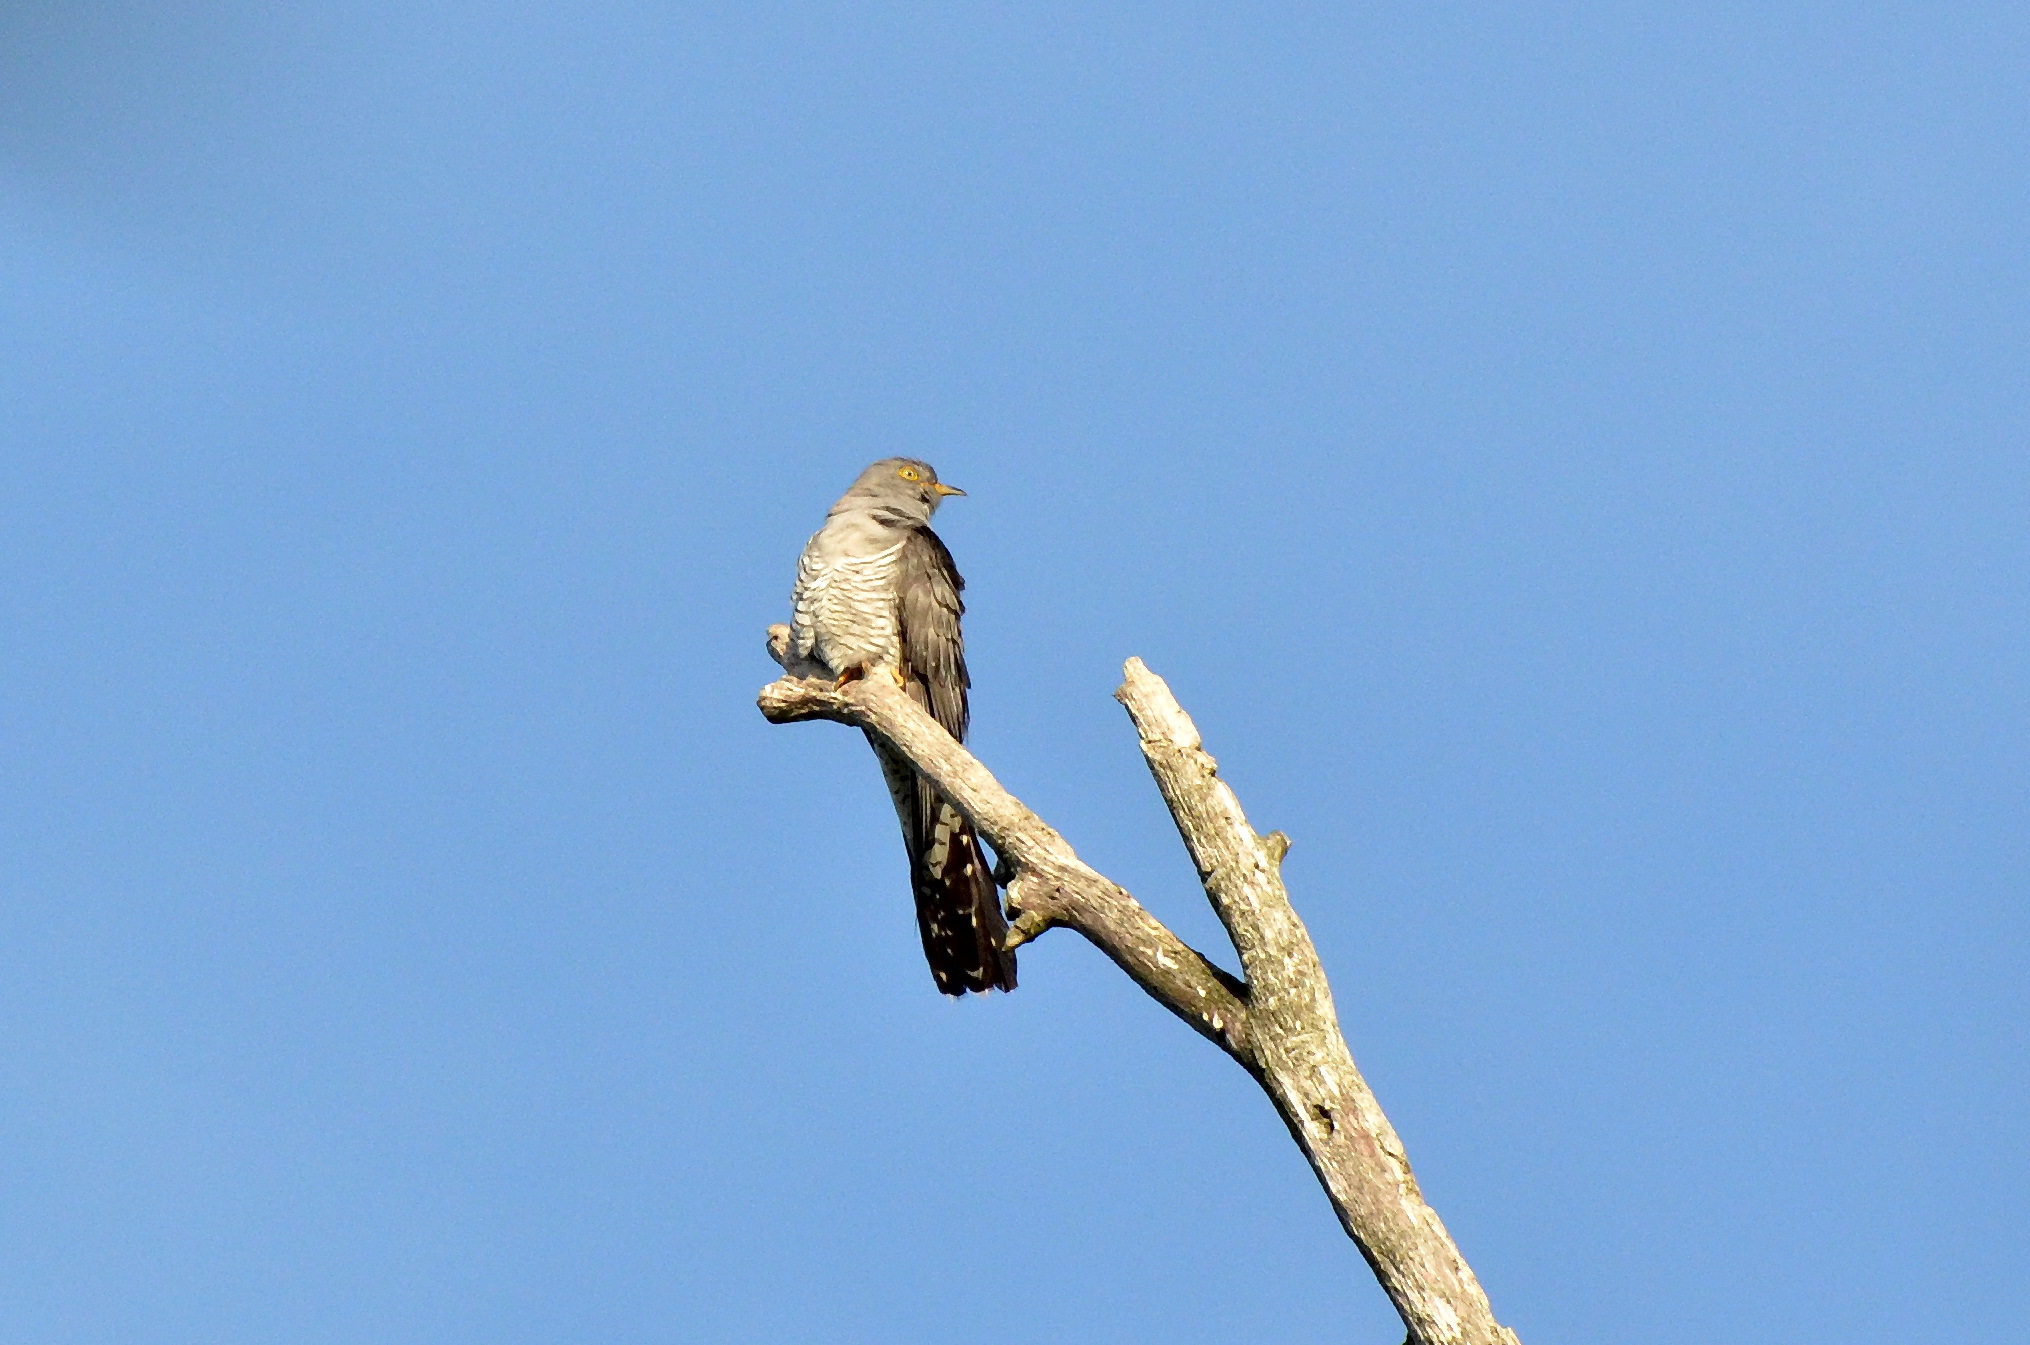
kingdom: Animalia
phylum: Chordata
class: Aves
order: Cuculiformes
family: Cuculidae
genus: Cuculus
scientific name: Cuculus canorus
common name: Common cuckoo
